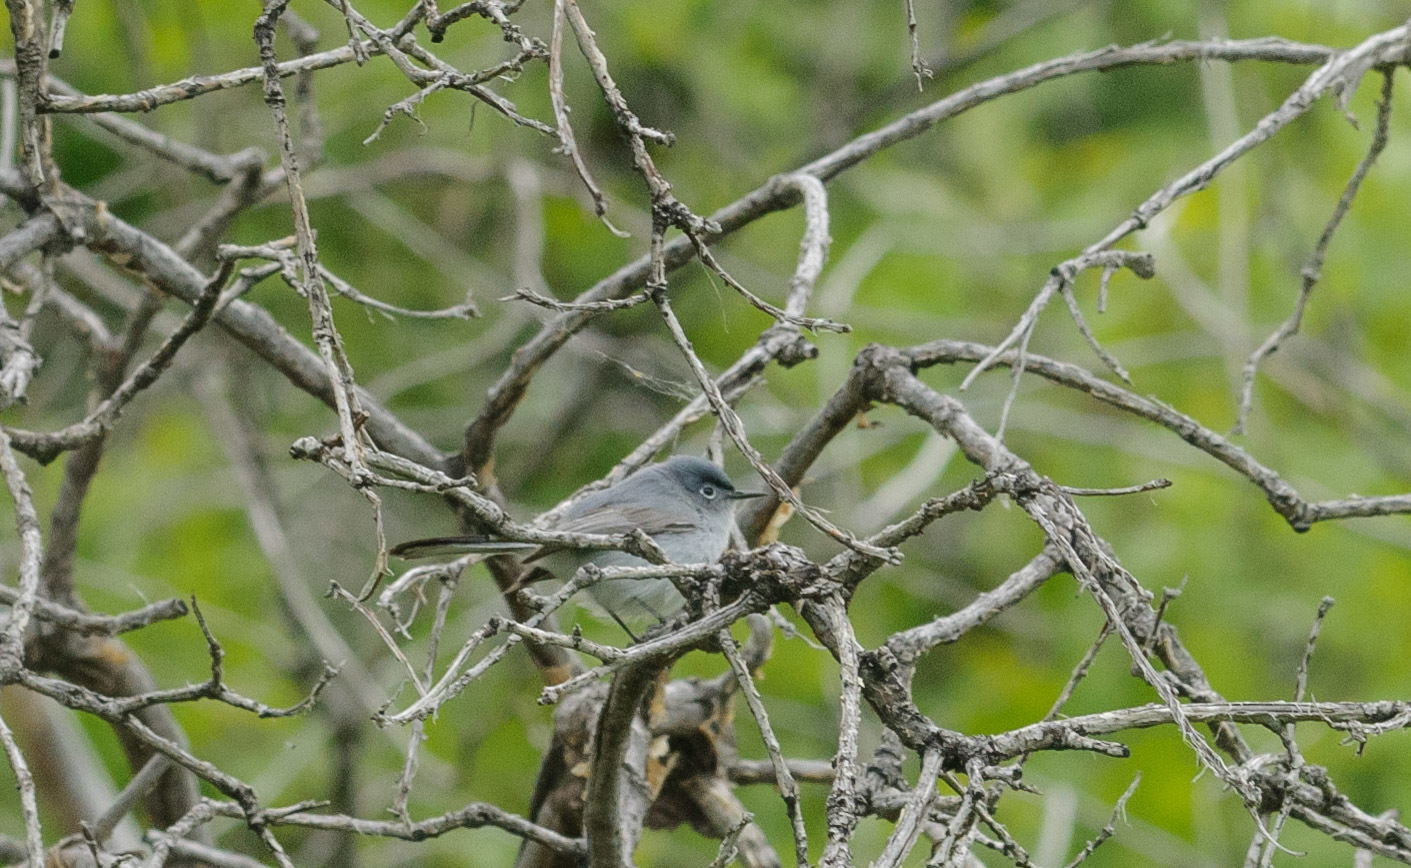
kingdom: Animalia
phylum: Chordata
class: Aves
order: Passeriformes
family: Polioptilidae
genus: Polioptila
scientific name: Polioptila caerulea
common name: Blue-gray gnatcatcher
